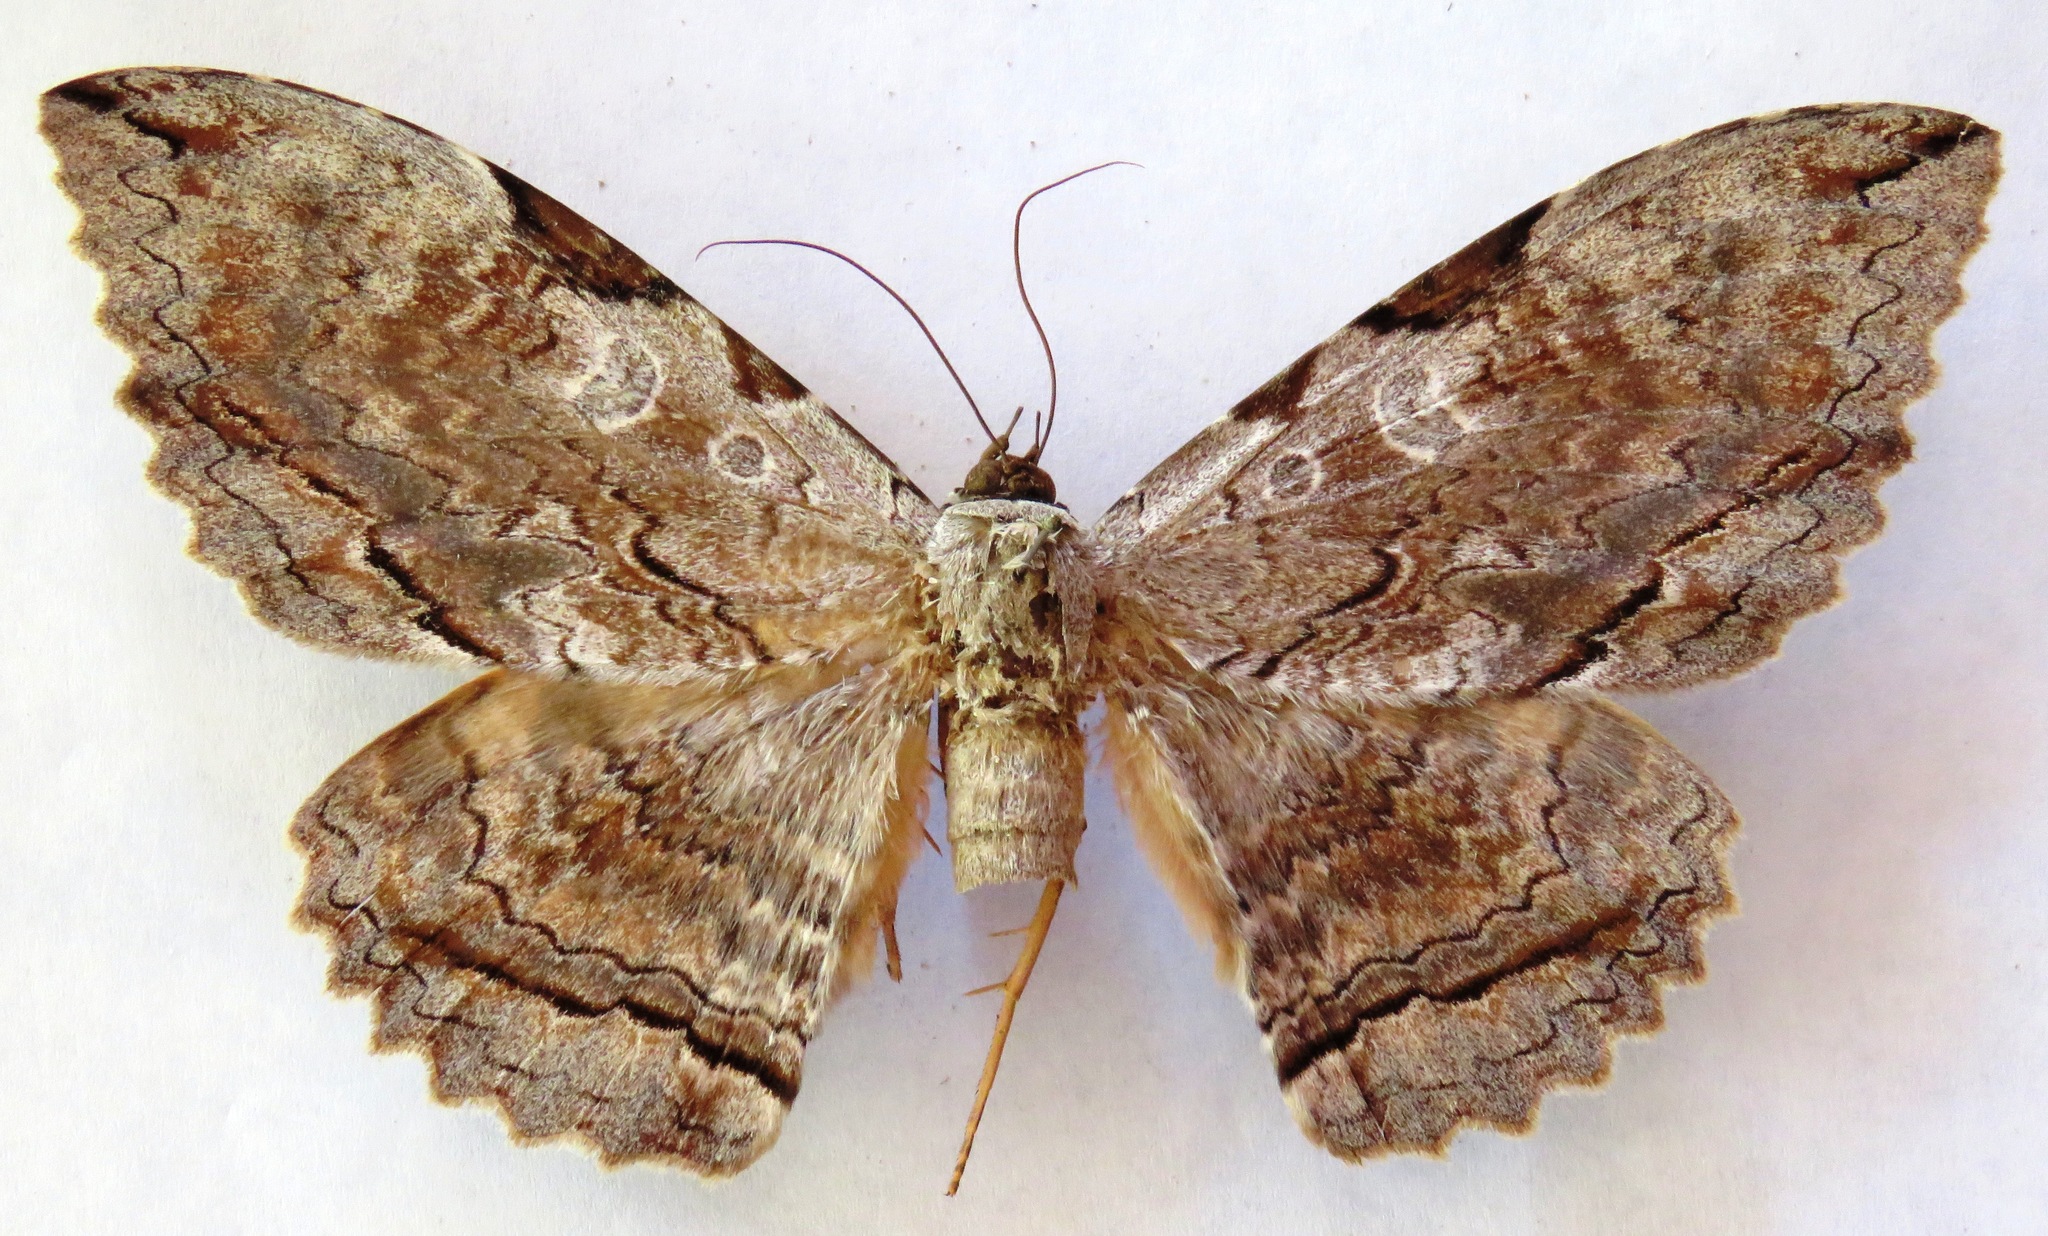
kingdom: Animalia
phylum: Arthropoda
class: Insecta
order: Lepidoptera
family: Erebidae
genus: Thysania
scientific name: Thysania zenobia
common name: Owl moth
